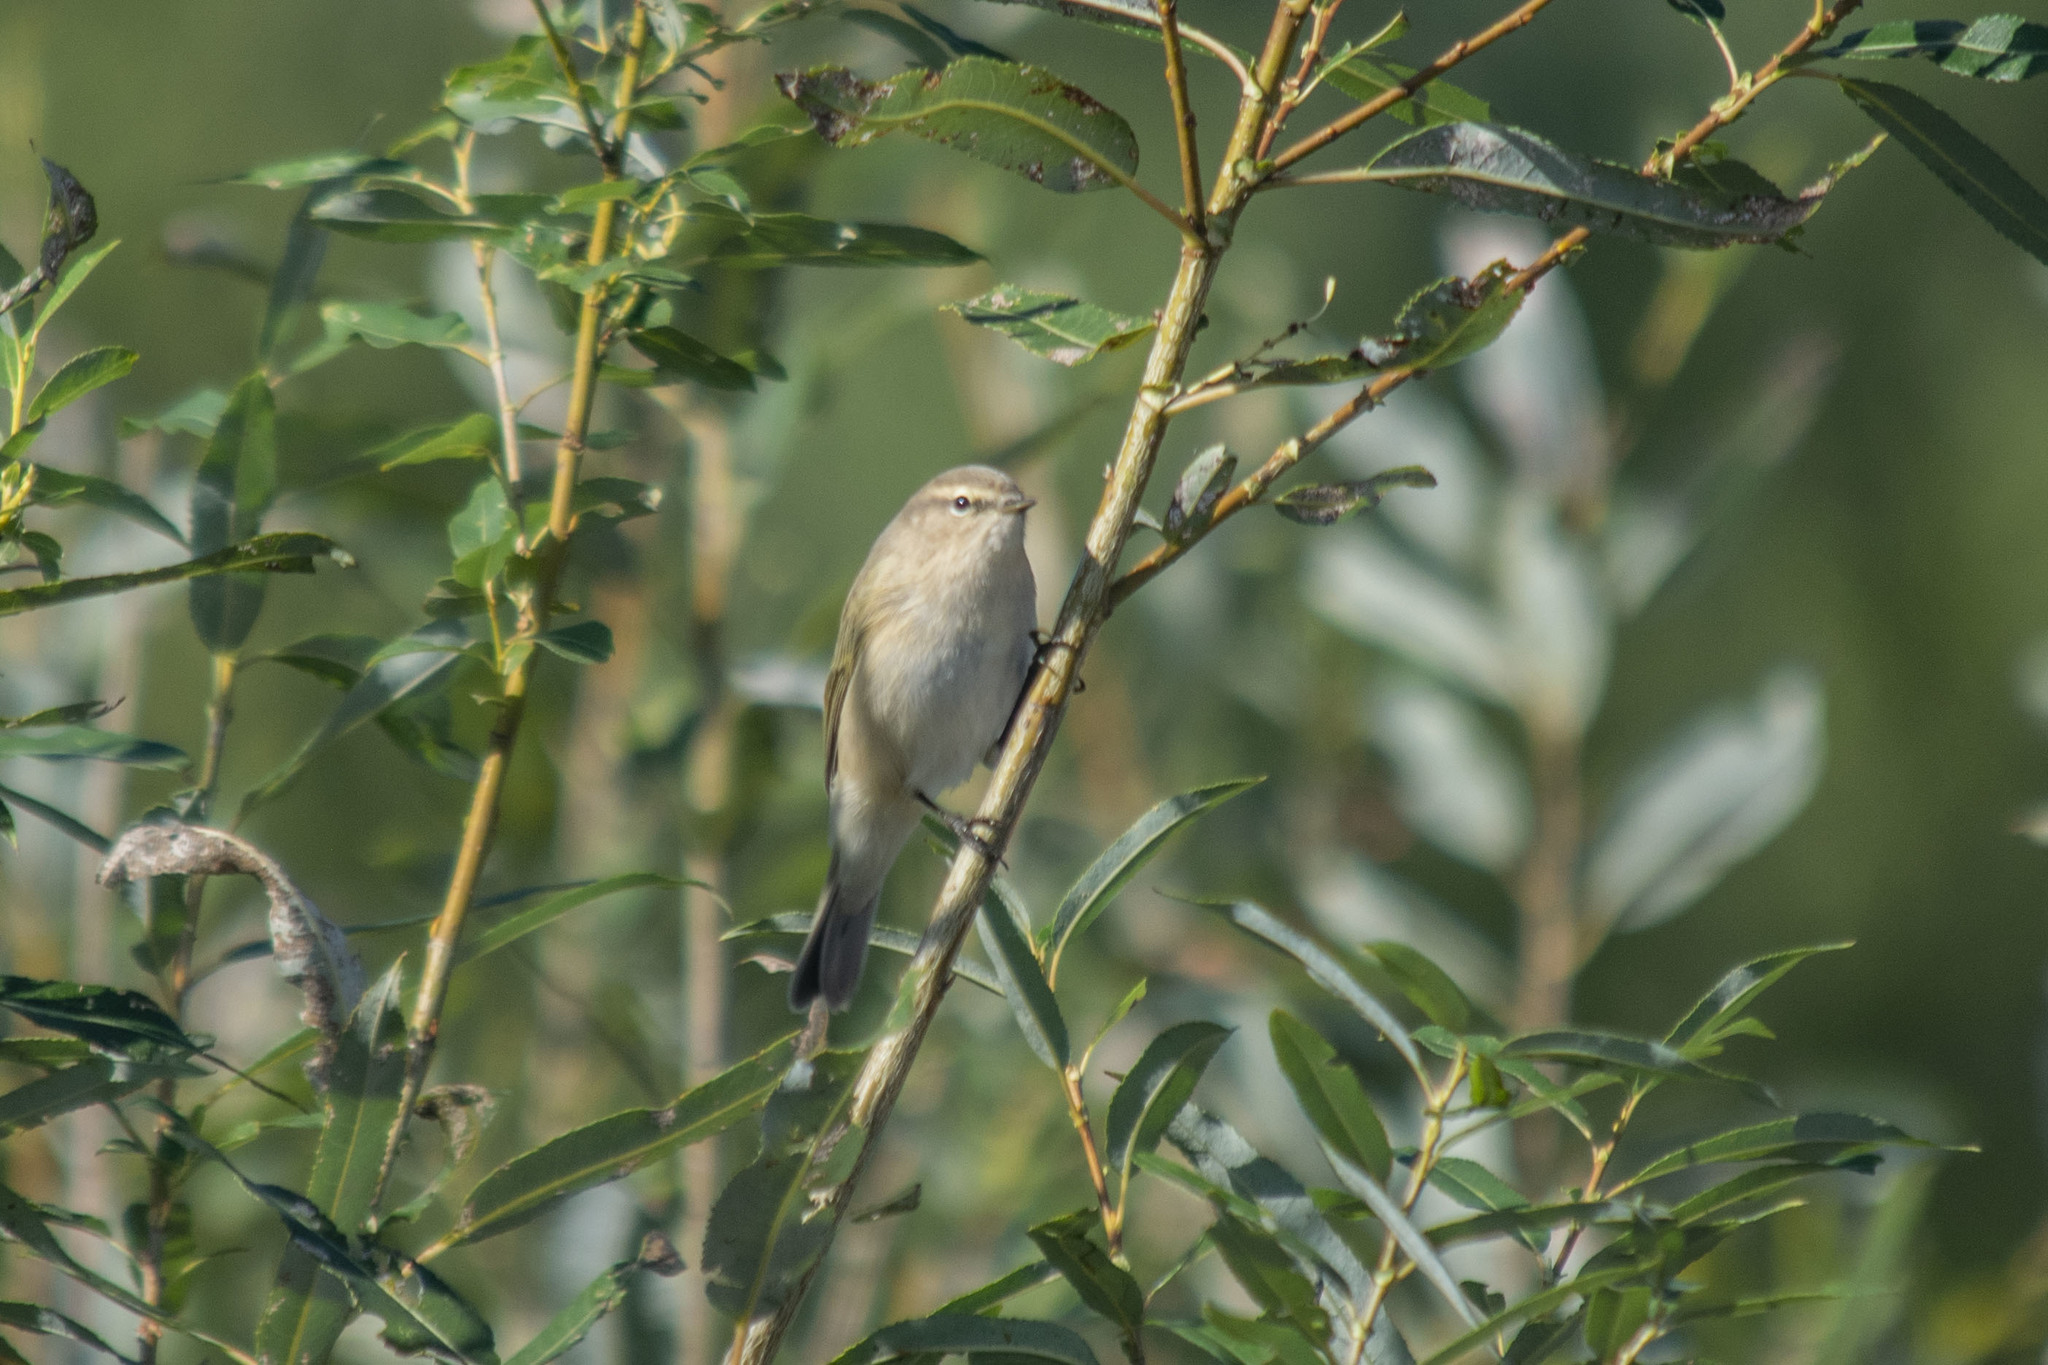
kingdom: Animalia
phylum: Chordata
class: Aves
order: Passeriformes
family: Phylloscopidae
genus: Phylloscopus
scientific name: Phylloscopus collybita
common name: Common chiffchaff
